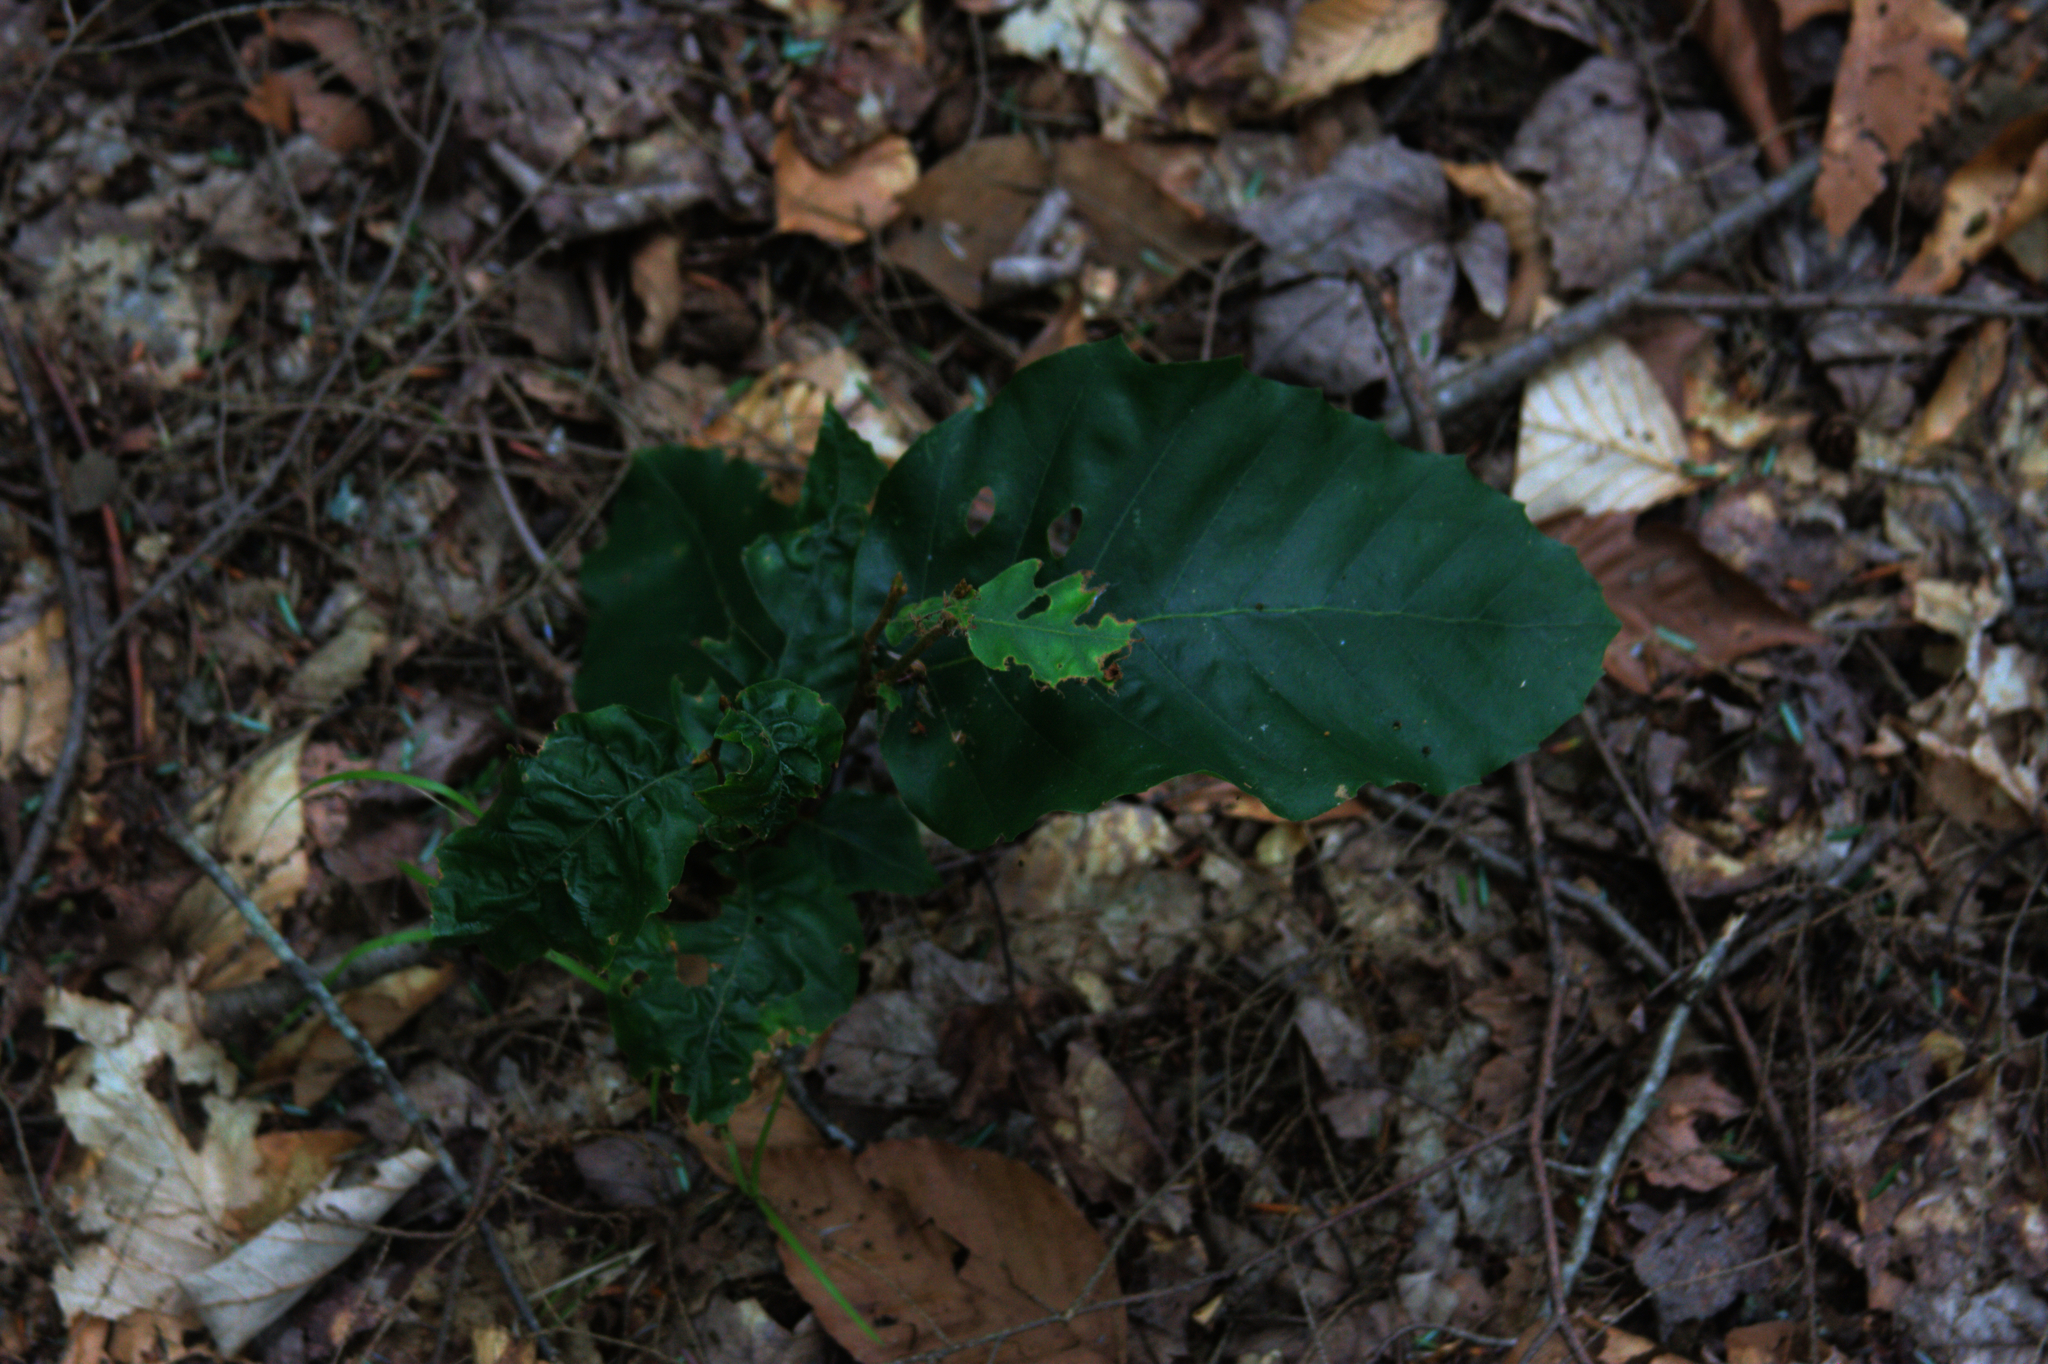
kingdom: Plantae
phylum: Tracheophyta
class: Magnoliopsida
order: Fagales
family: Fagaceae
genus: Fagus
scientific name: Fagus grandifolia
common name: American beech
